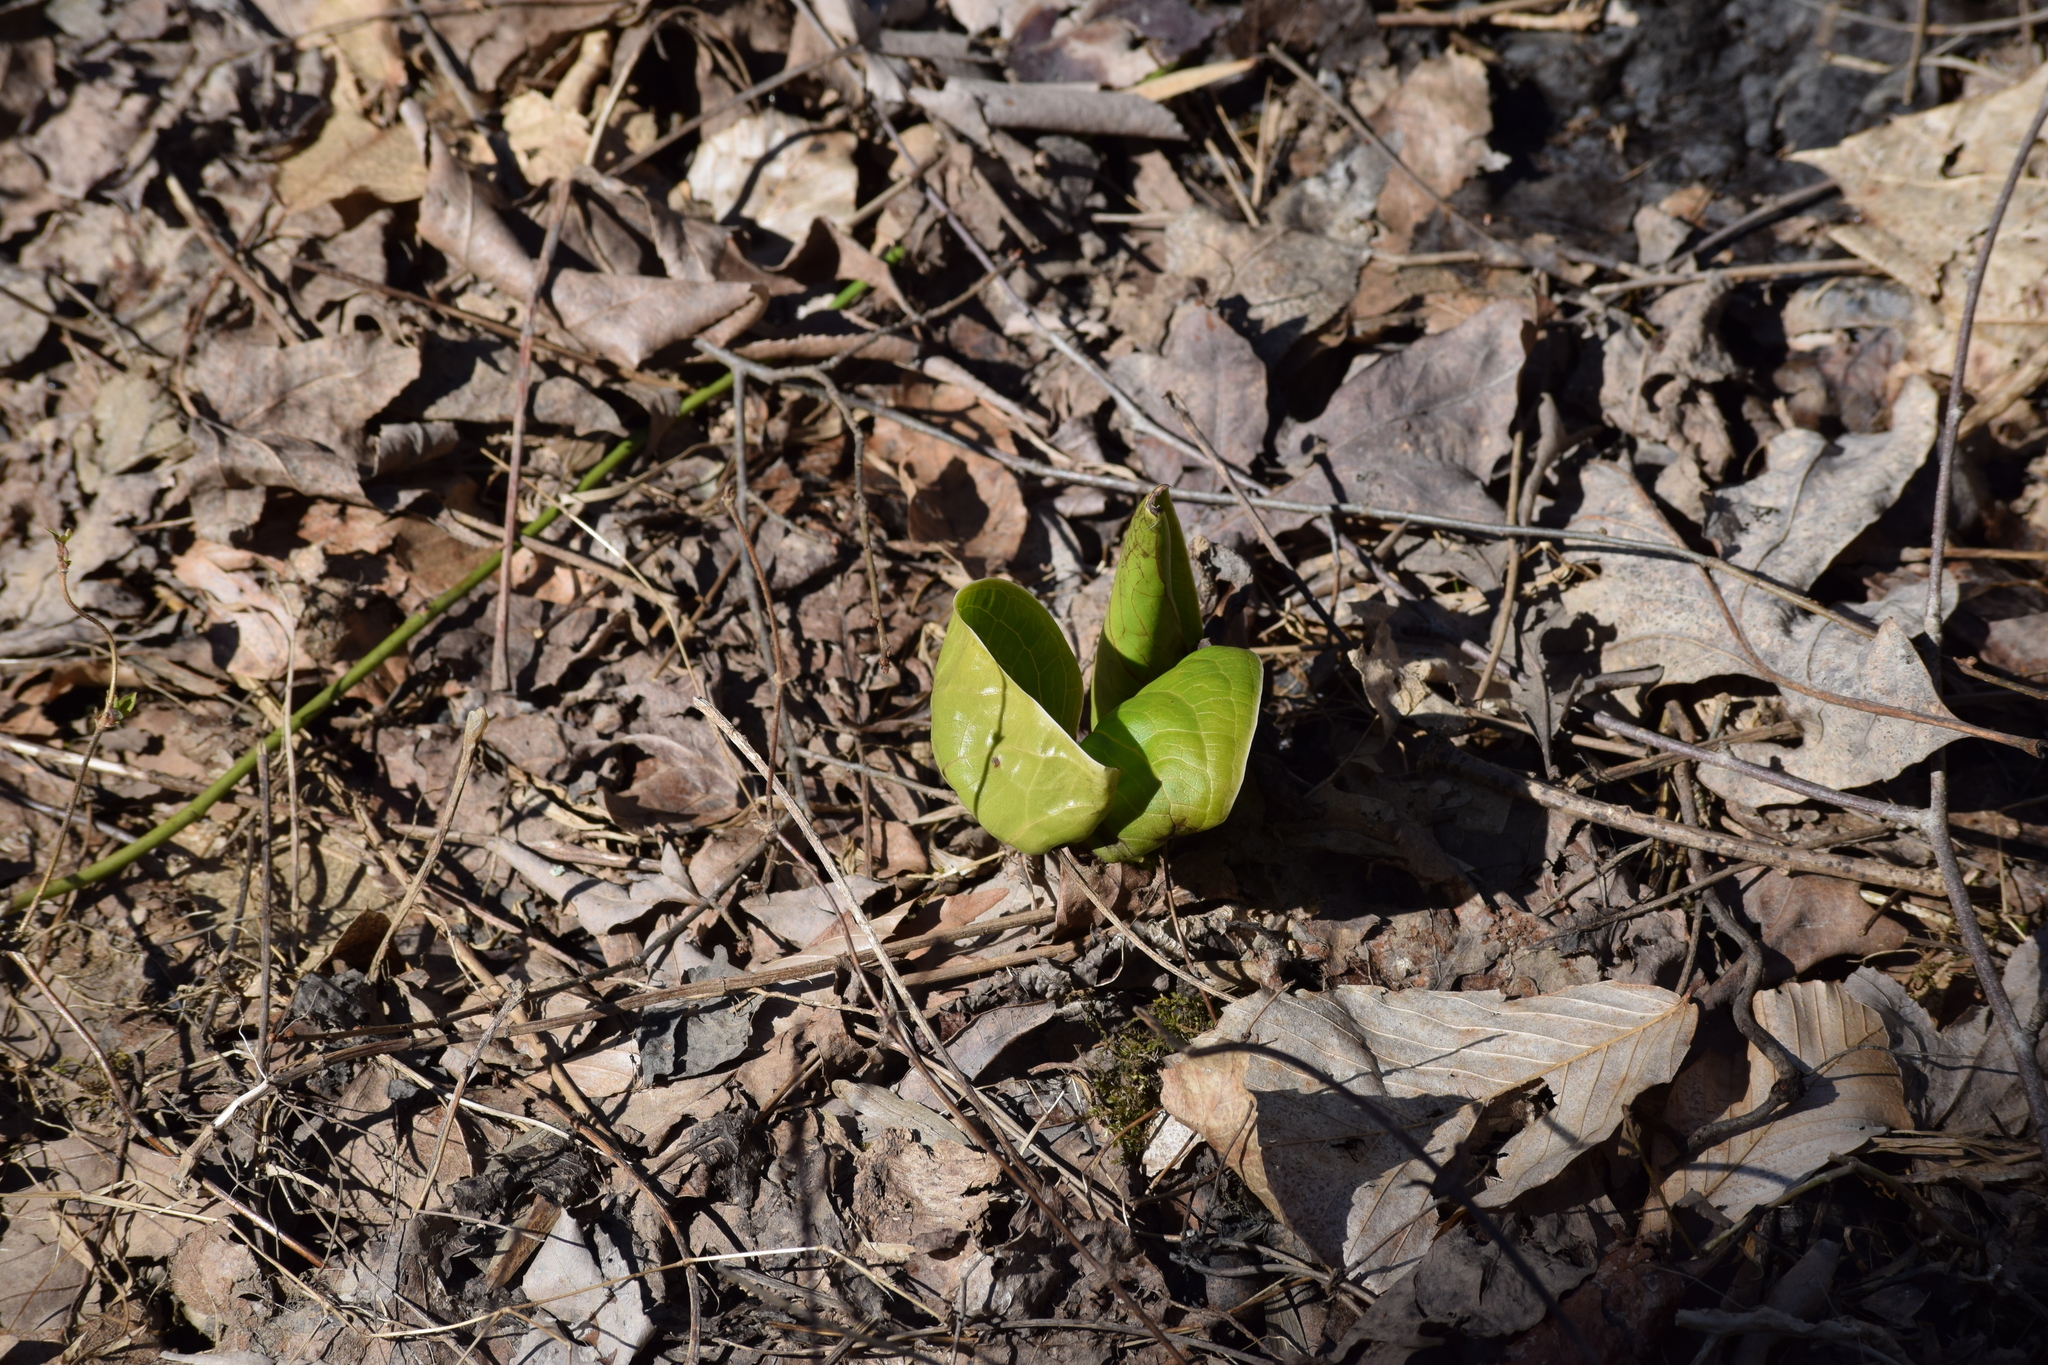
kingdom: Plantae
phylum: Tracheophyta
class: Liliopsida
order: Alismatales
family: Araceae
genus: Symplocarpus
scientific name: Symplocarpus foetidus
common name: Eastern skunk cabbage
